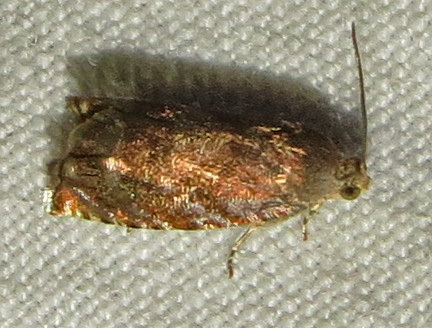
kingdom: Animalia
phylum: Arthropoda
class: Insecta
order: Lepidoptera
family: Tortricidae
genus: Cydia
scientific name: Cydia caryana
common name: Hickory shuckworm moth
